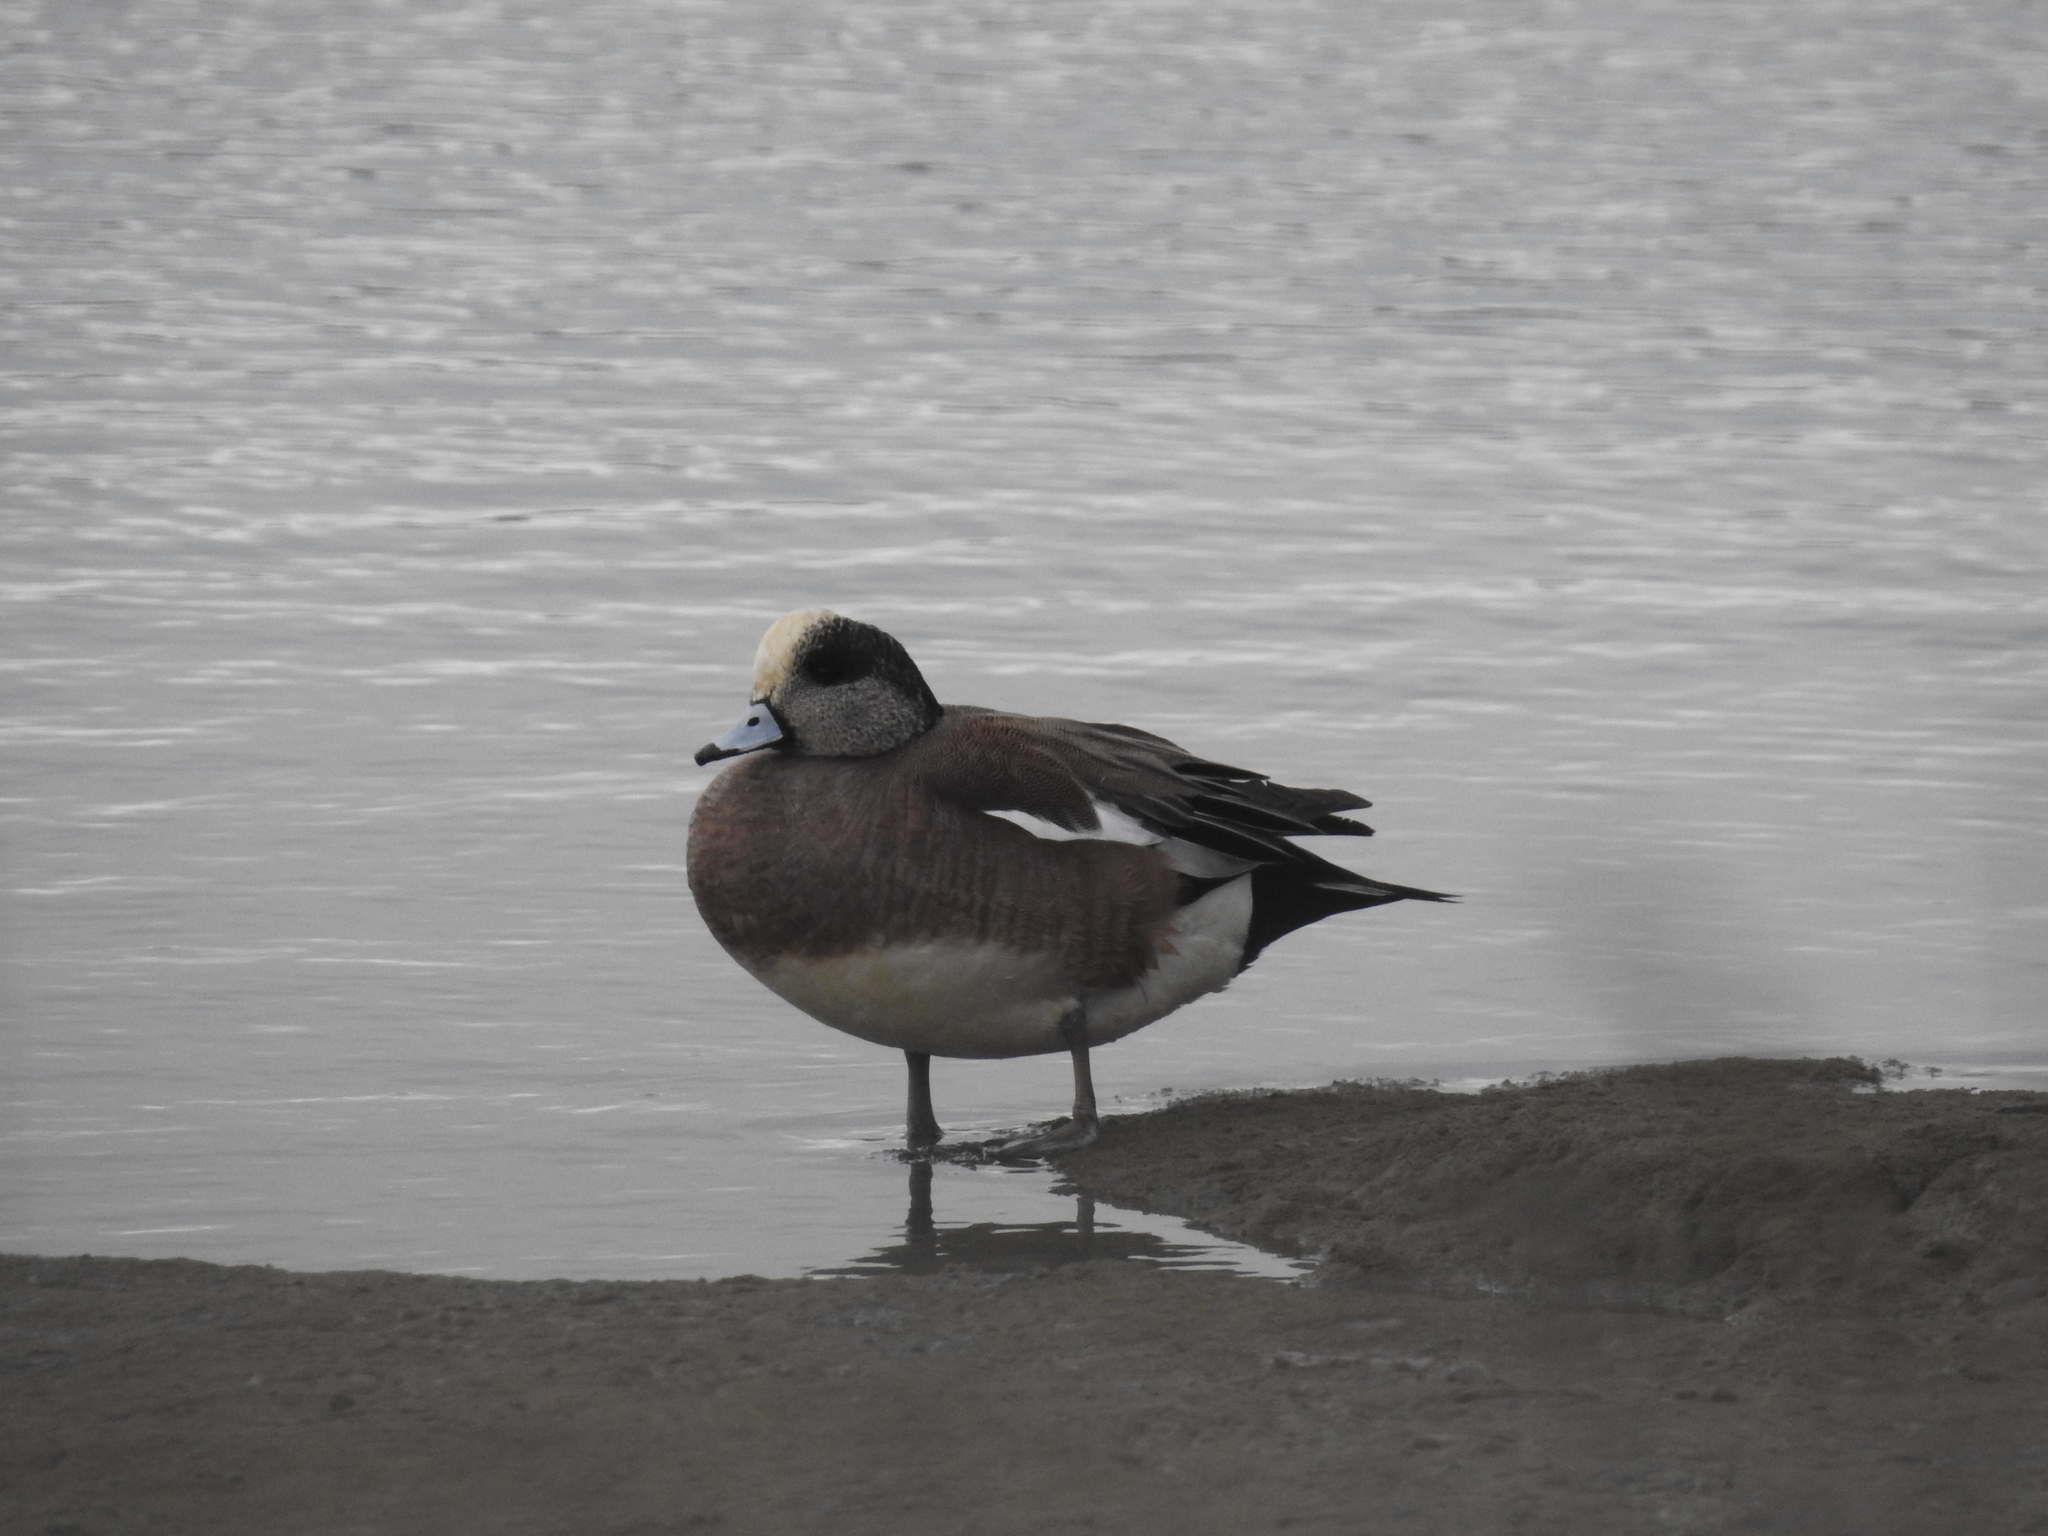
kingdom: Animalia
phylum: Chordata
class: Aves
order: Anseriformes
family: Anatidae
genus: Mareca
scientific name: Mareca americana
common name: American wigeon
